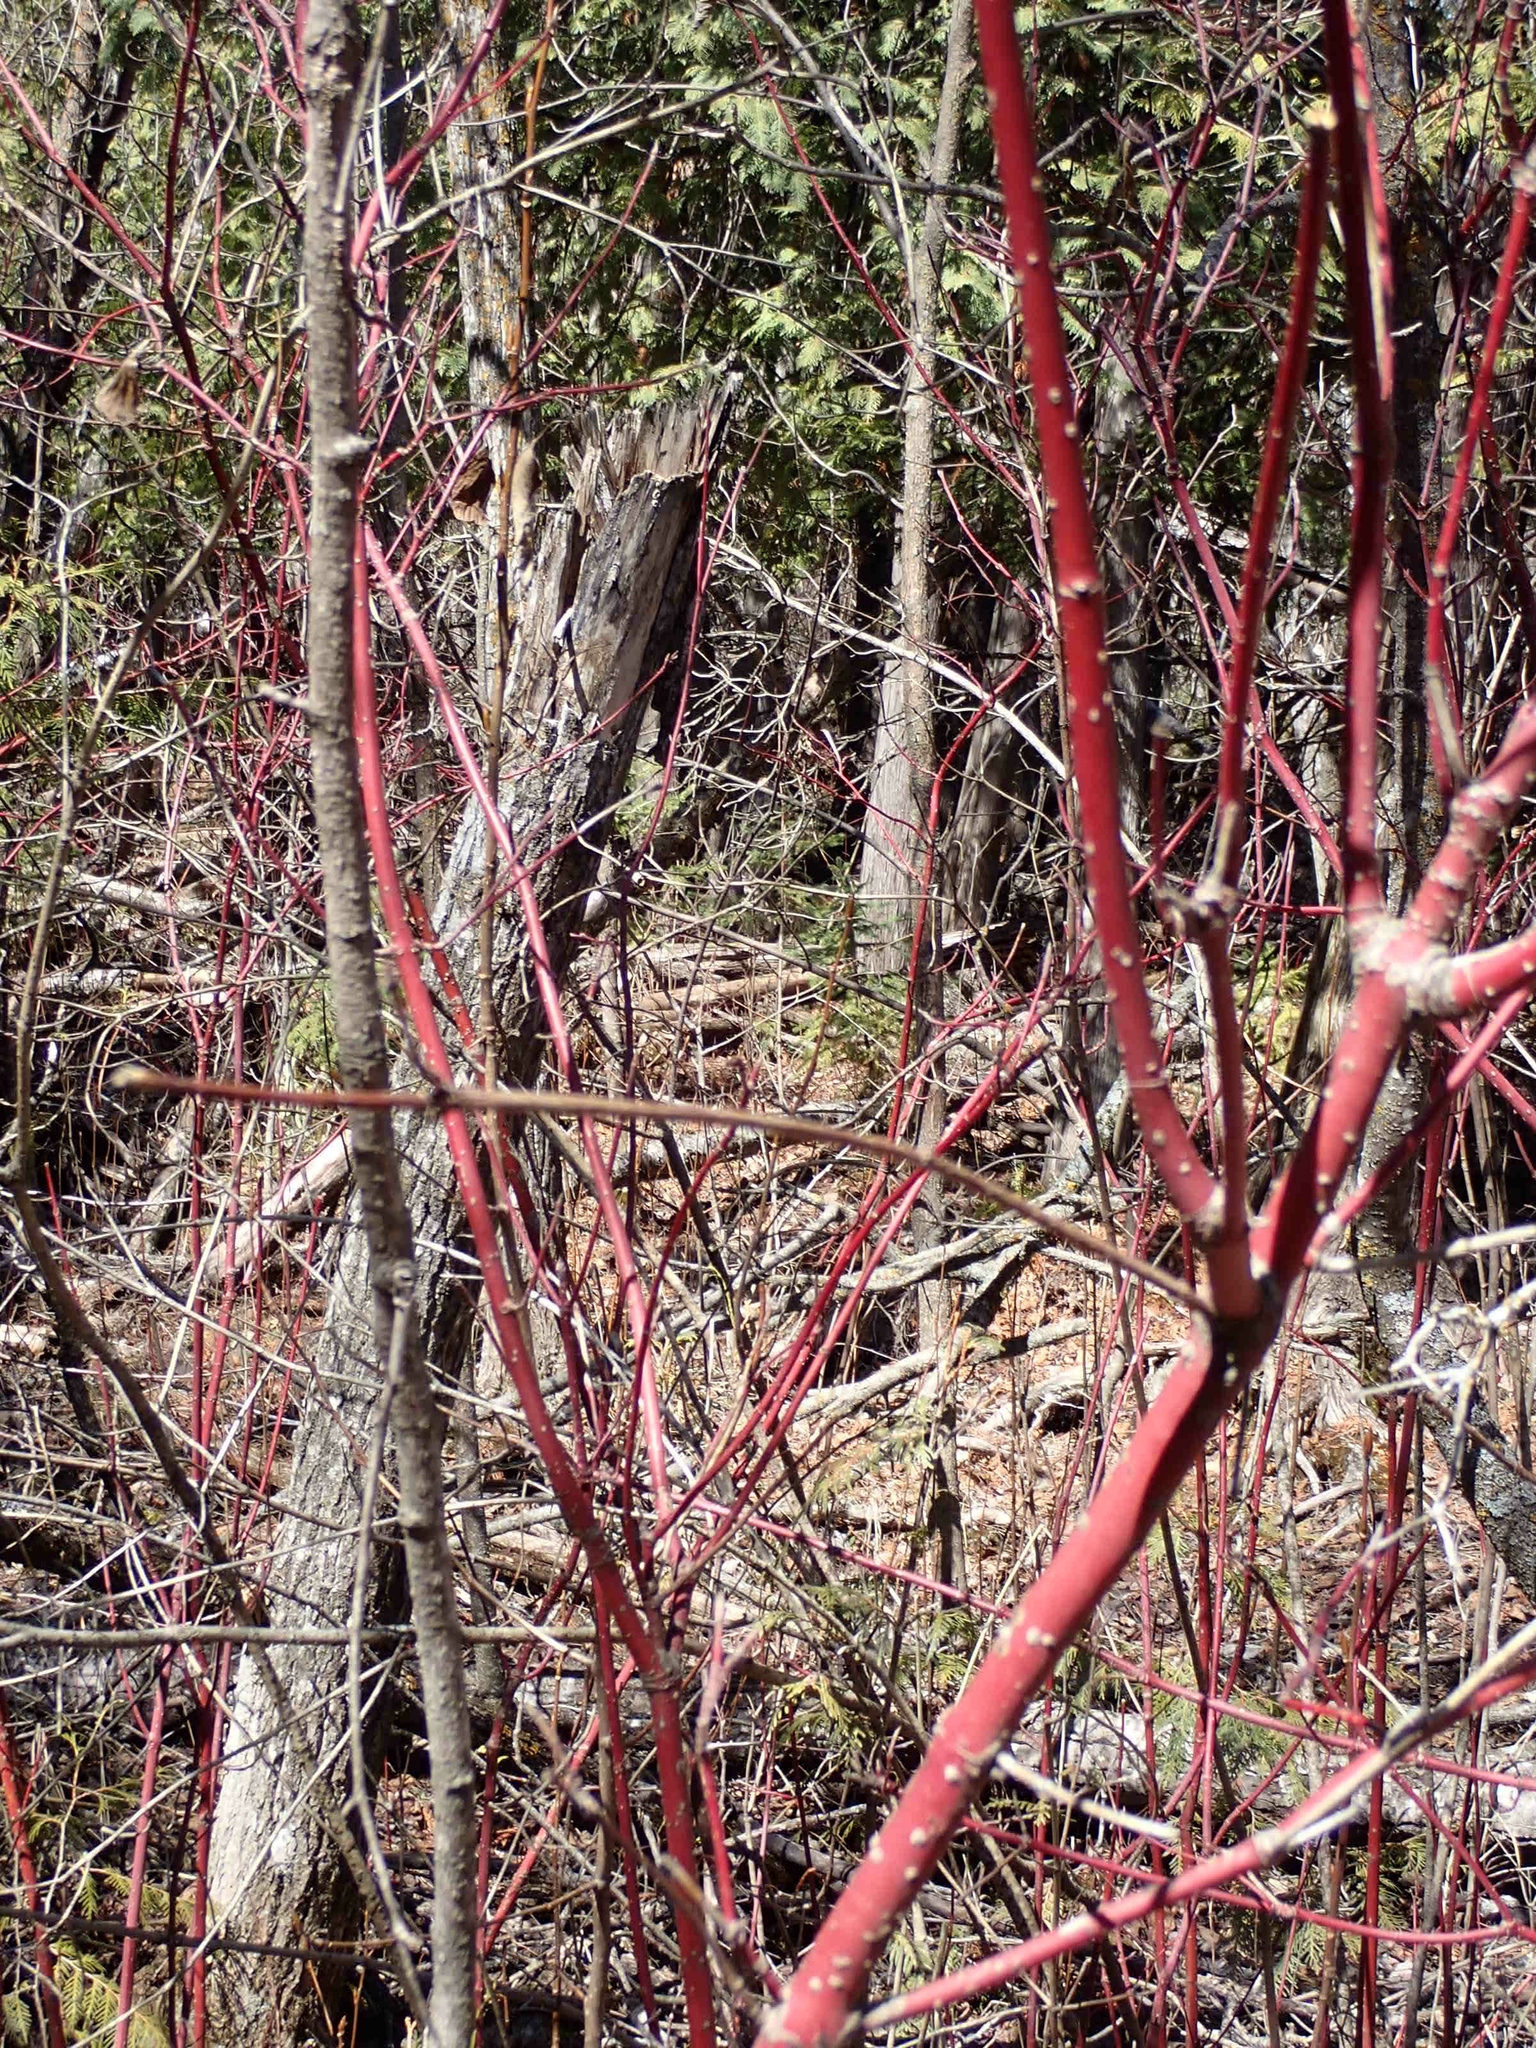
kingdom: Plantae
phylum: Tracheophyta
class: Magnoliopsida
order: Cornales
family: Cornaceae
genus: Cornus
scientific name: Cornus sericea
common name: Red-osier dogwood
